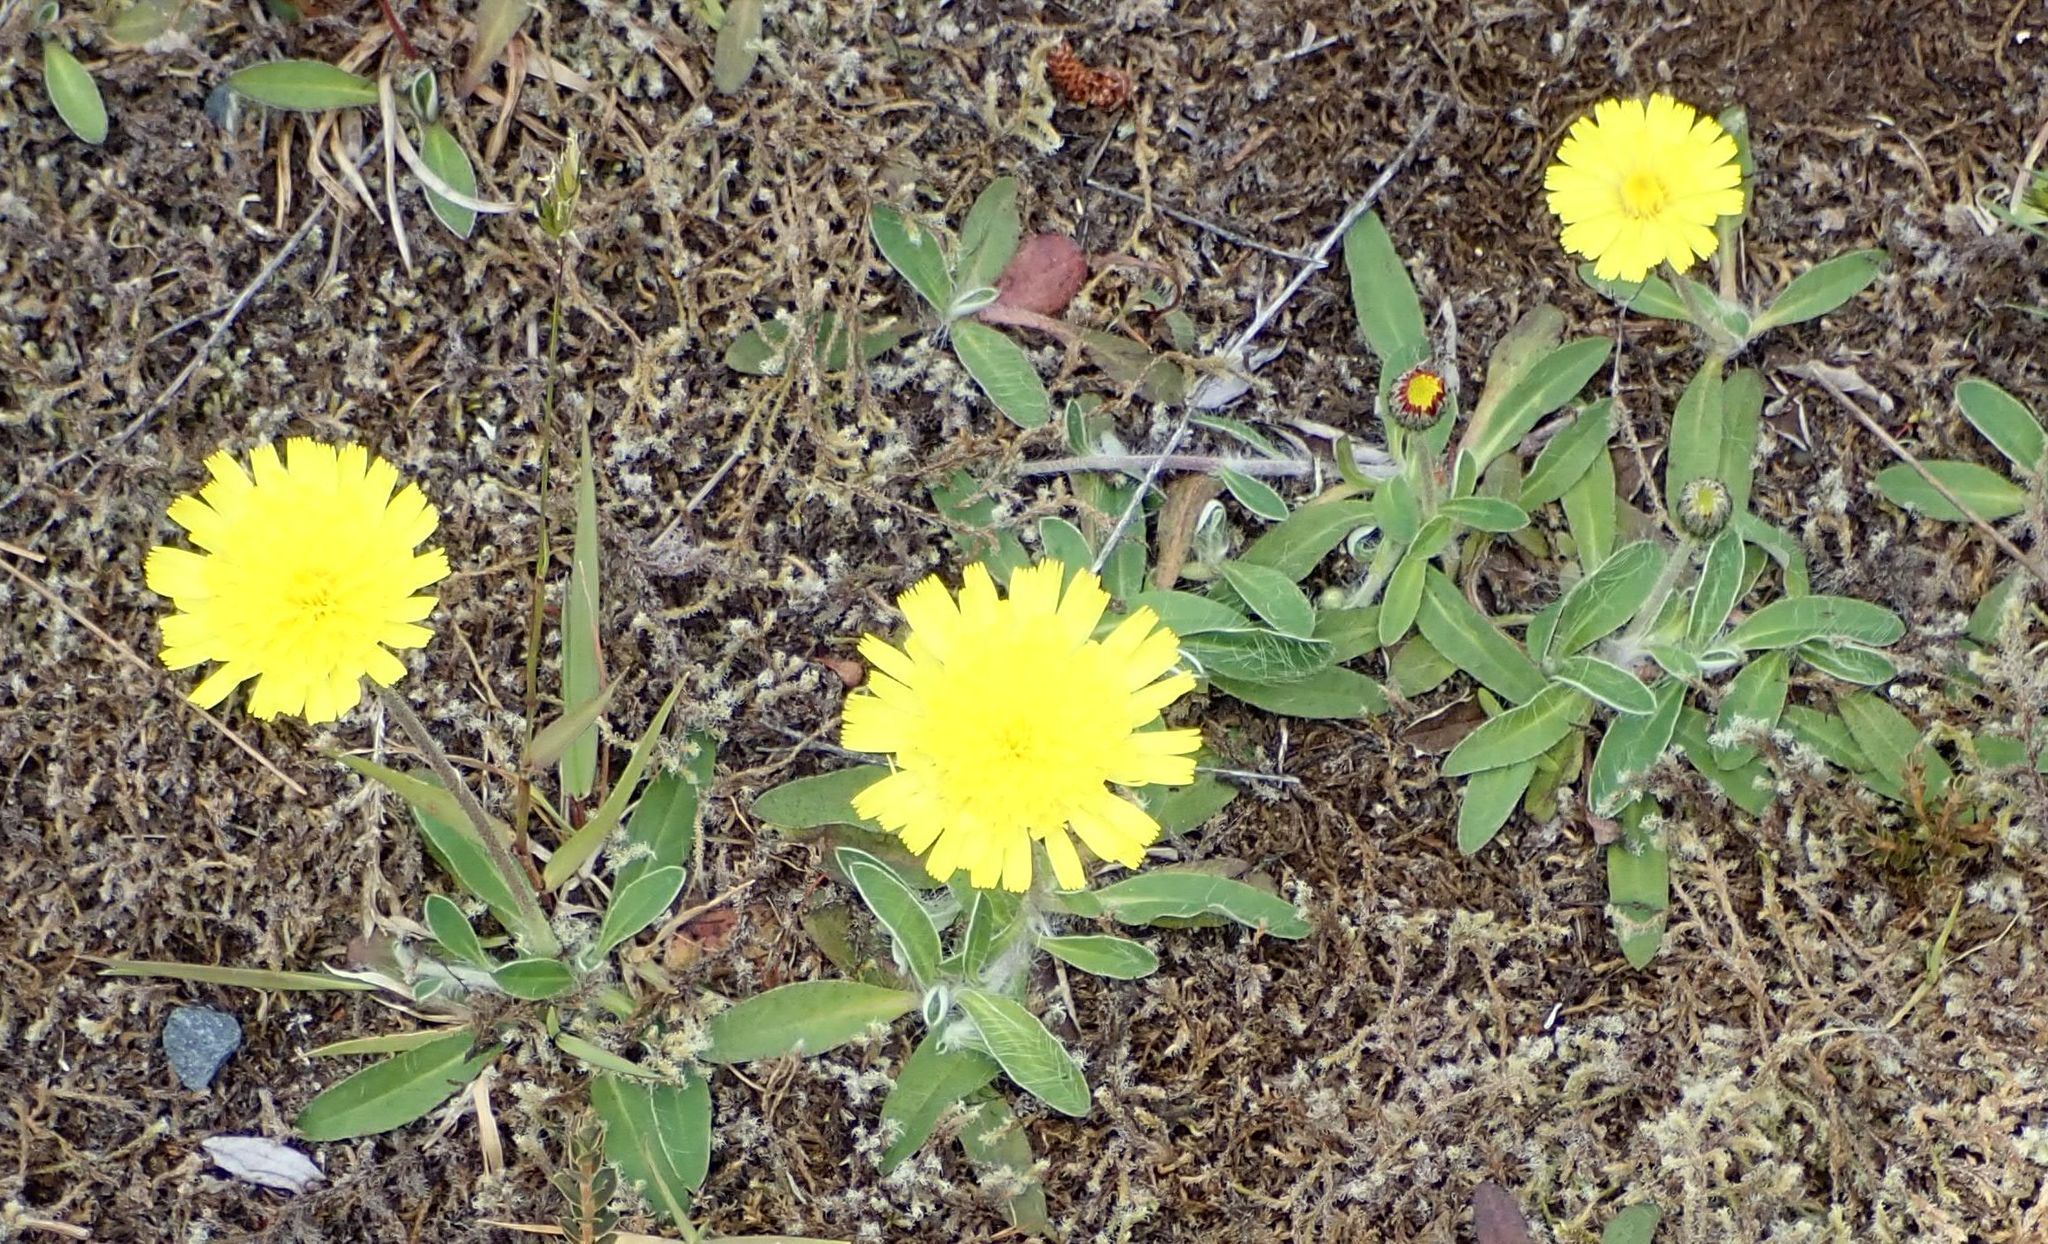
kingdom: Plantae
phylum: Tracheophyta
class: Magnoliopsida
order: Asterales
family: Asteraceae
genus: Pilosella
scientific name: Pilosella officinarum
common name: Mouse-ear hawkweed
